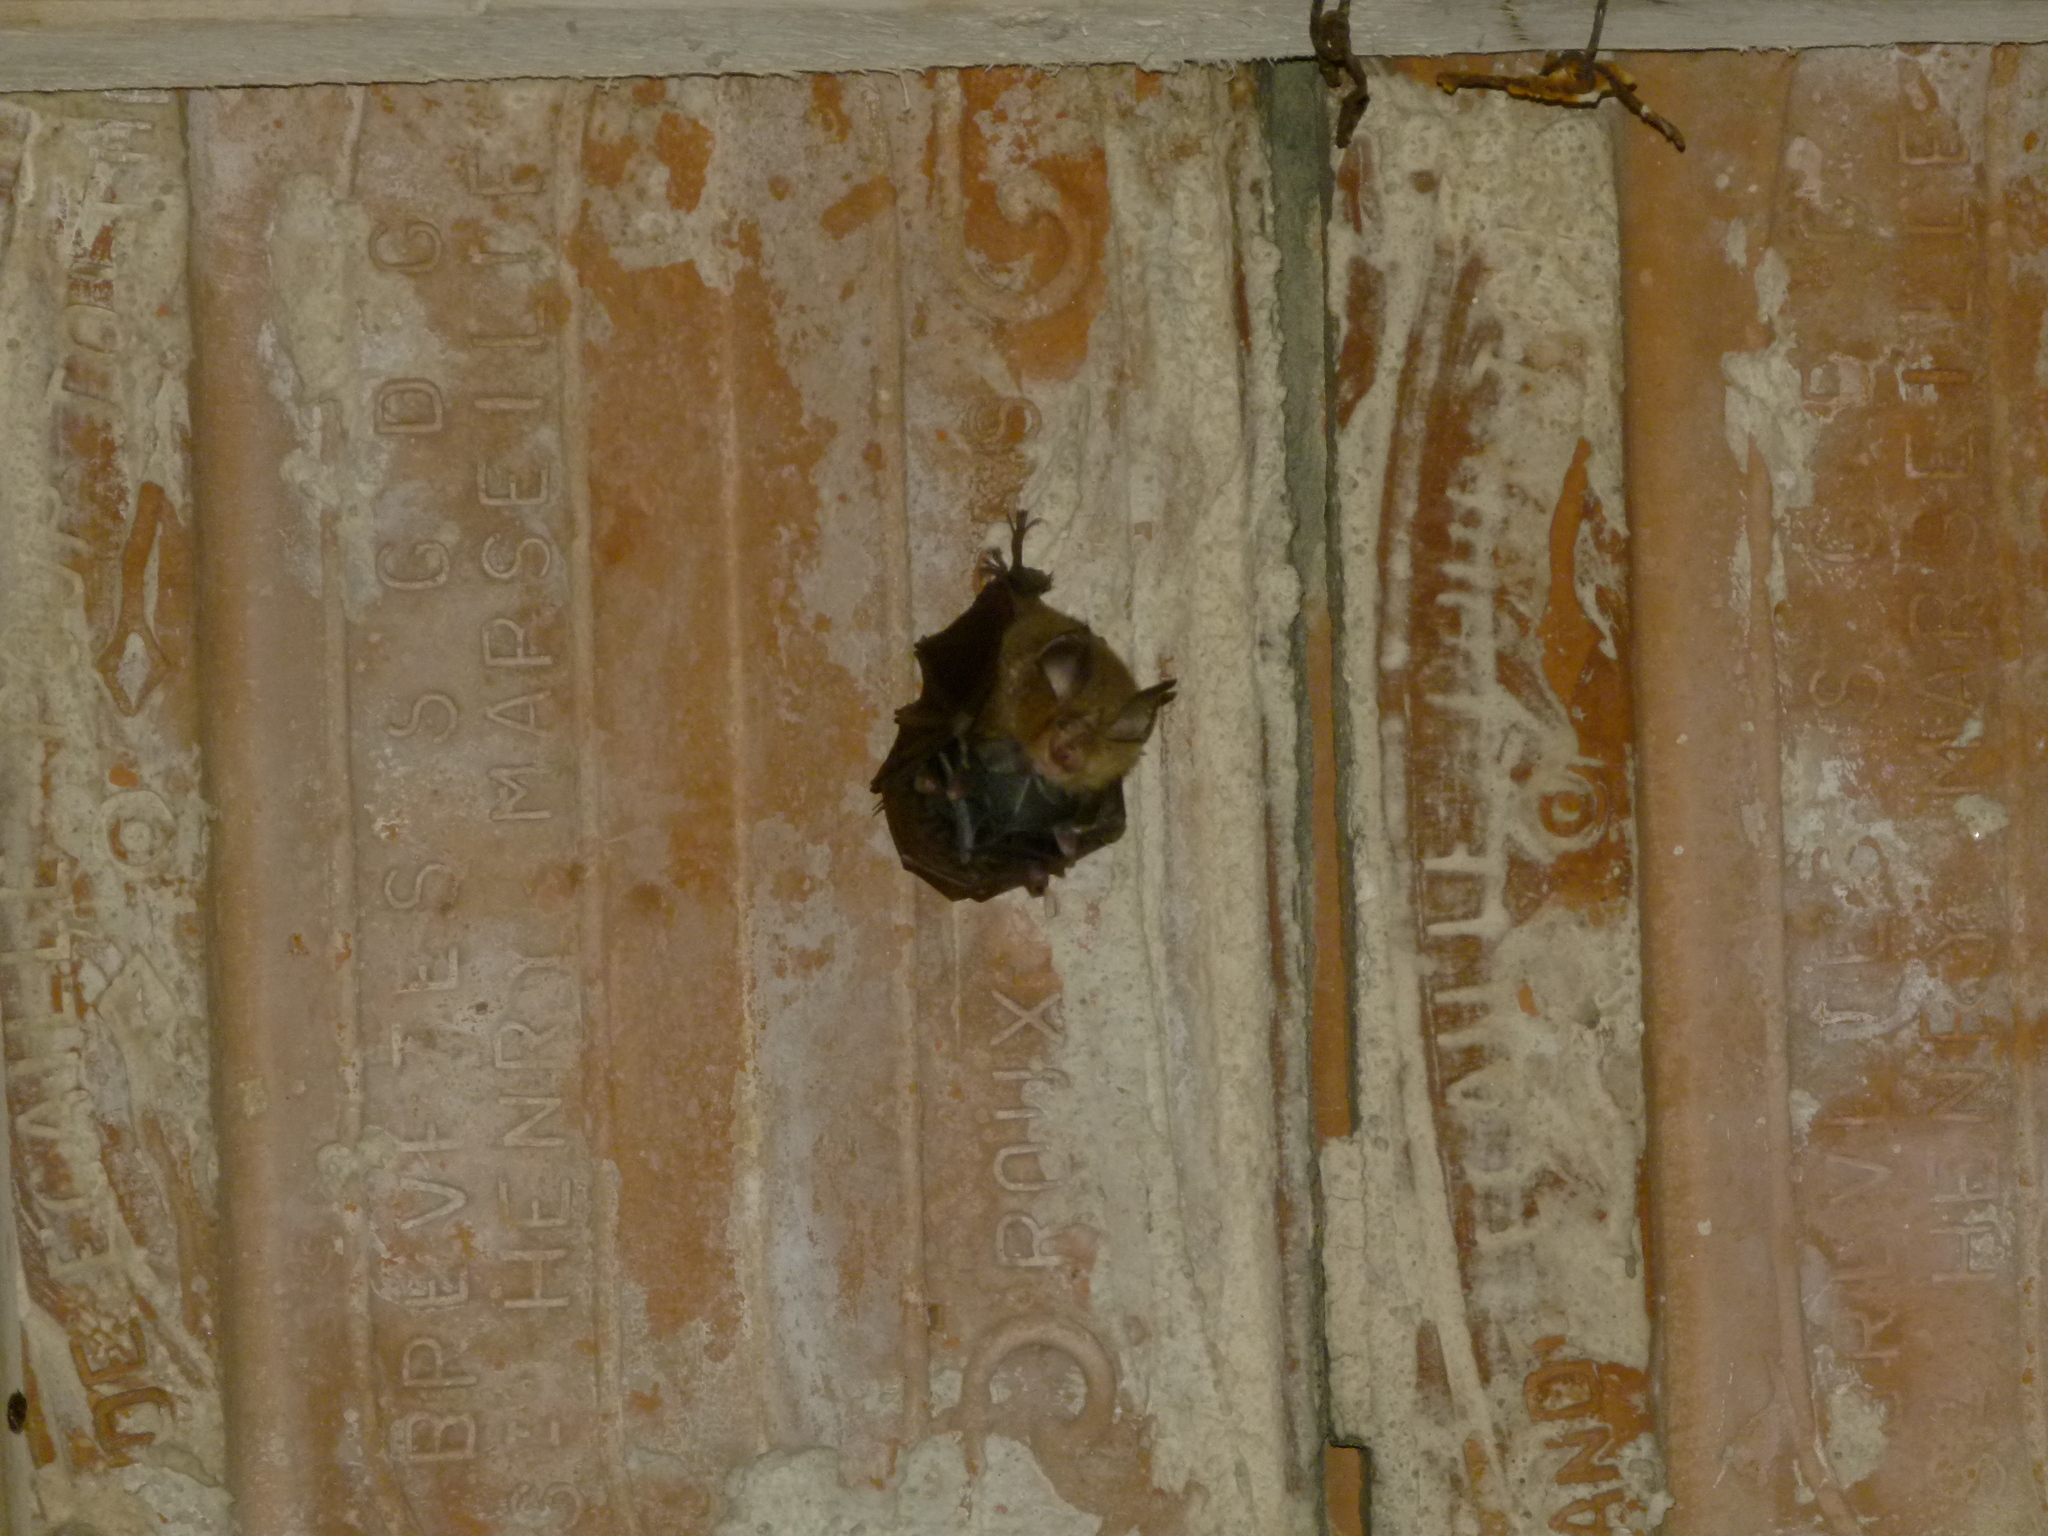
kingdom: Animalia
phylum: Chordata
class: Mammalia
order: Chiroptera
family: Rhinolophidae
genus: Rhinolophus
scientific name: Rhinolophus hipposideros
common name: Lesser horseshoe bat
